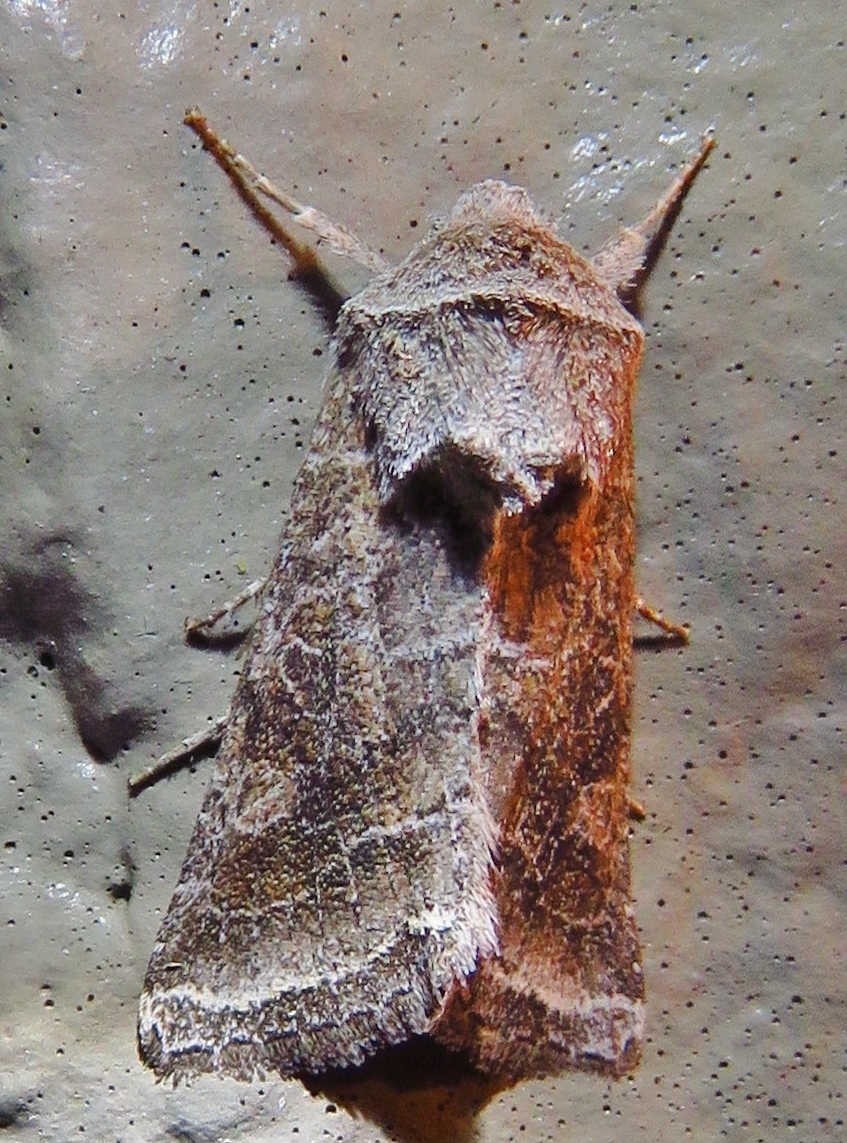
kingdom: Animalia
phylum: Arthropoda
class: Insecta
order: Lepidoptera
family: Noctuidae
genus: Lacinipolia
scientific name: Lacinipolia erecta
